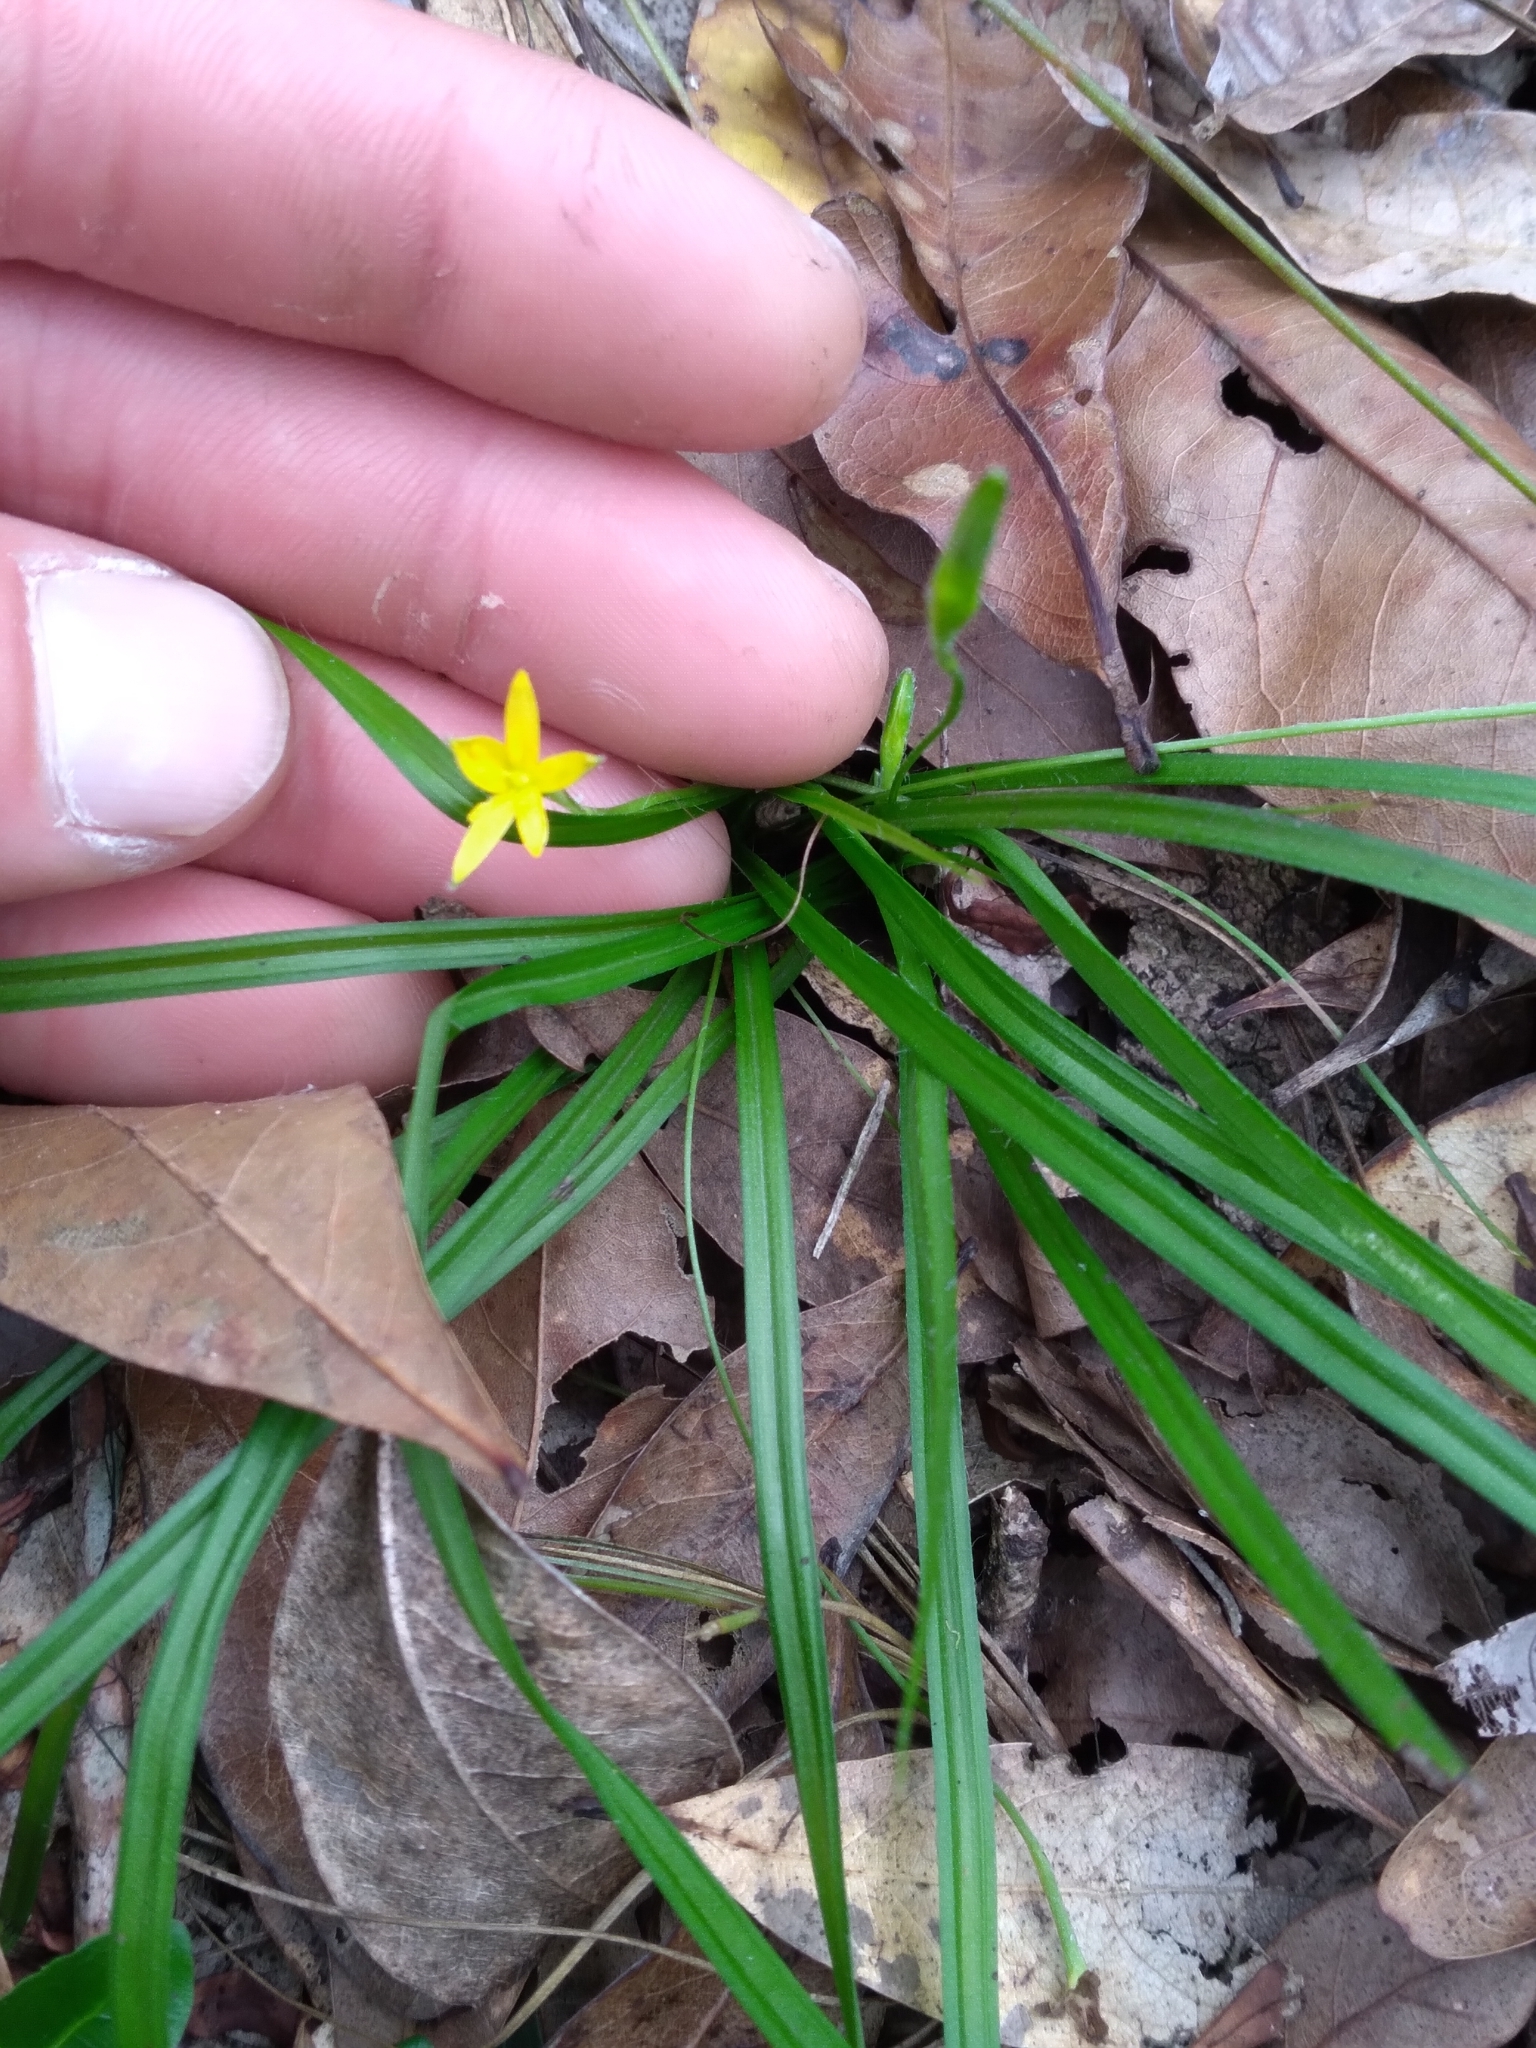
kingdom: Plantae
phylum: Tracheophyta
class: Liliopsida
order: Asparagales
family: Hypoxidaceae
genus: Hypoxis
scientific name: Hypoxis curtissii
